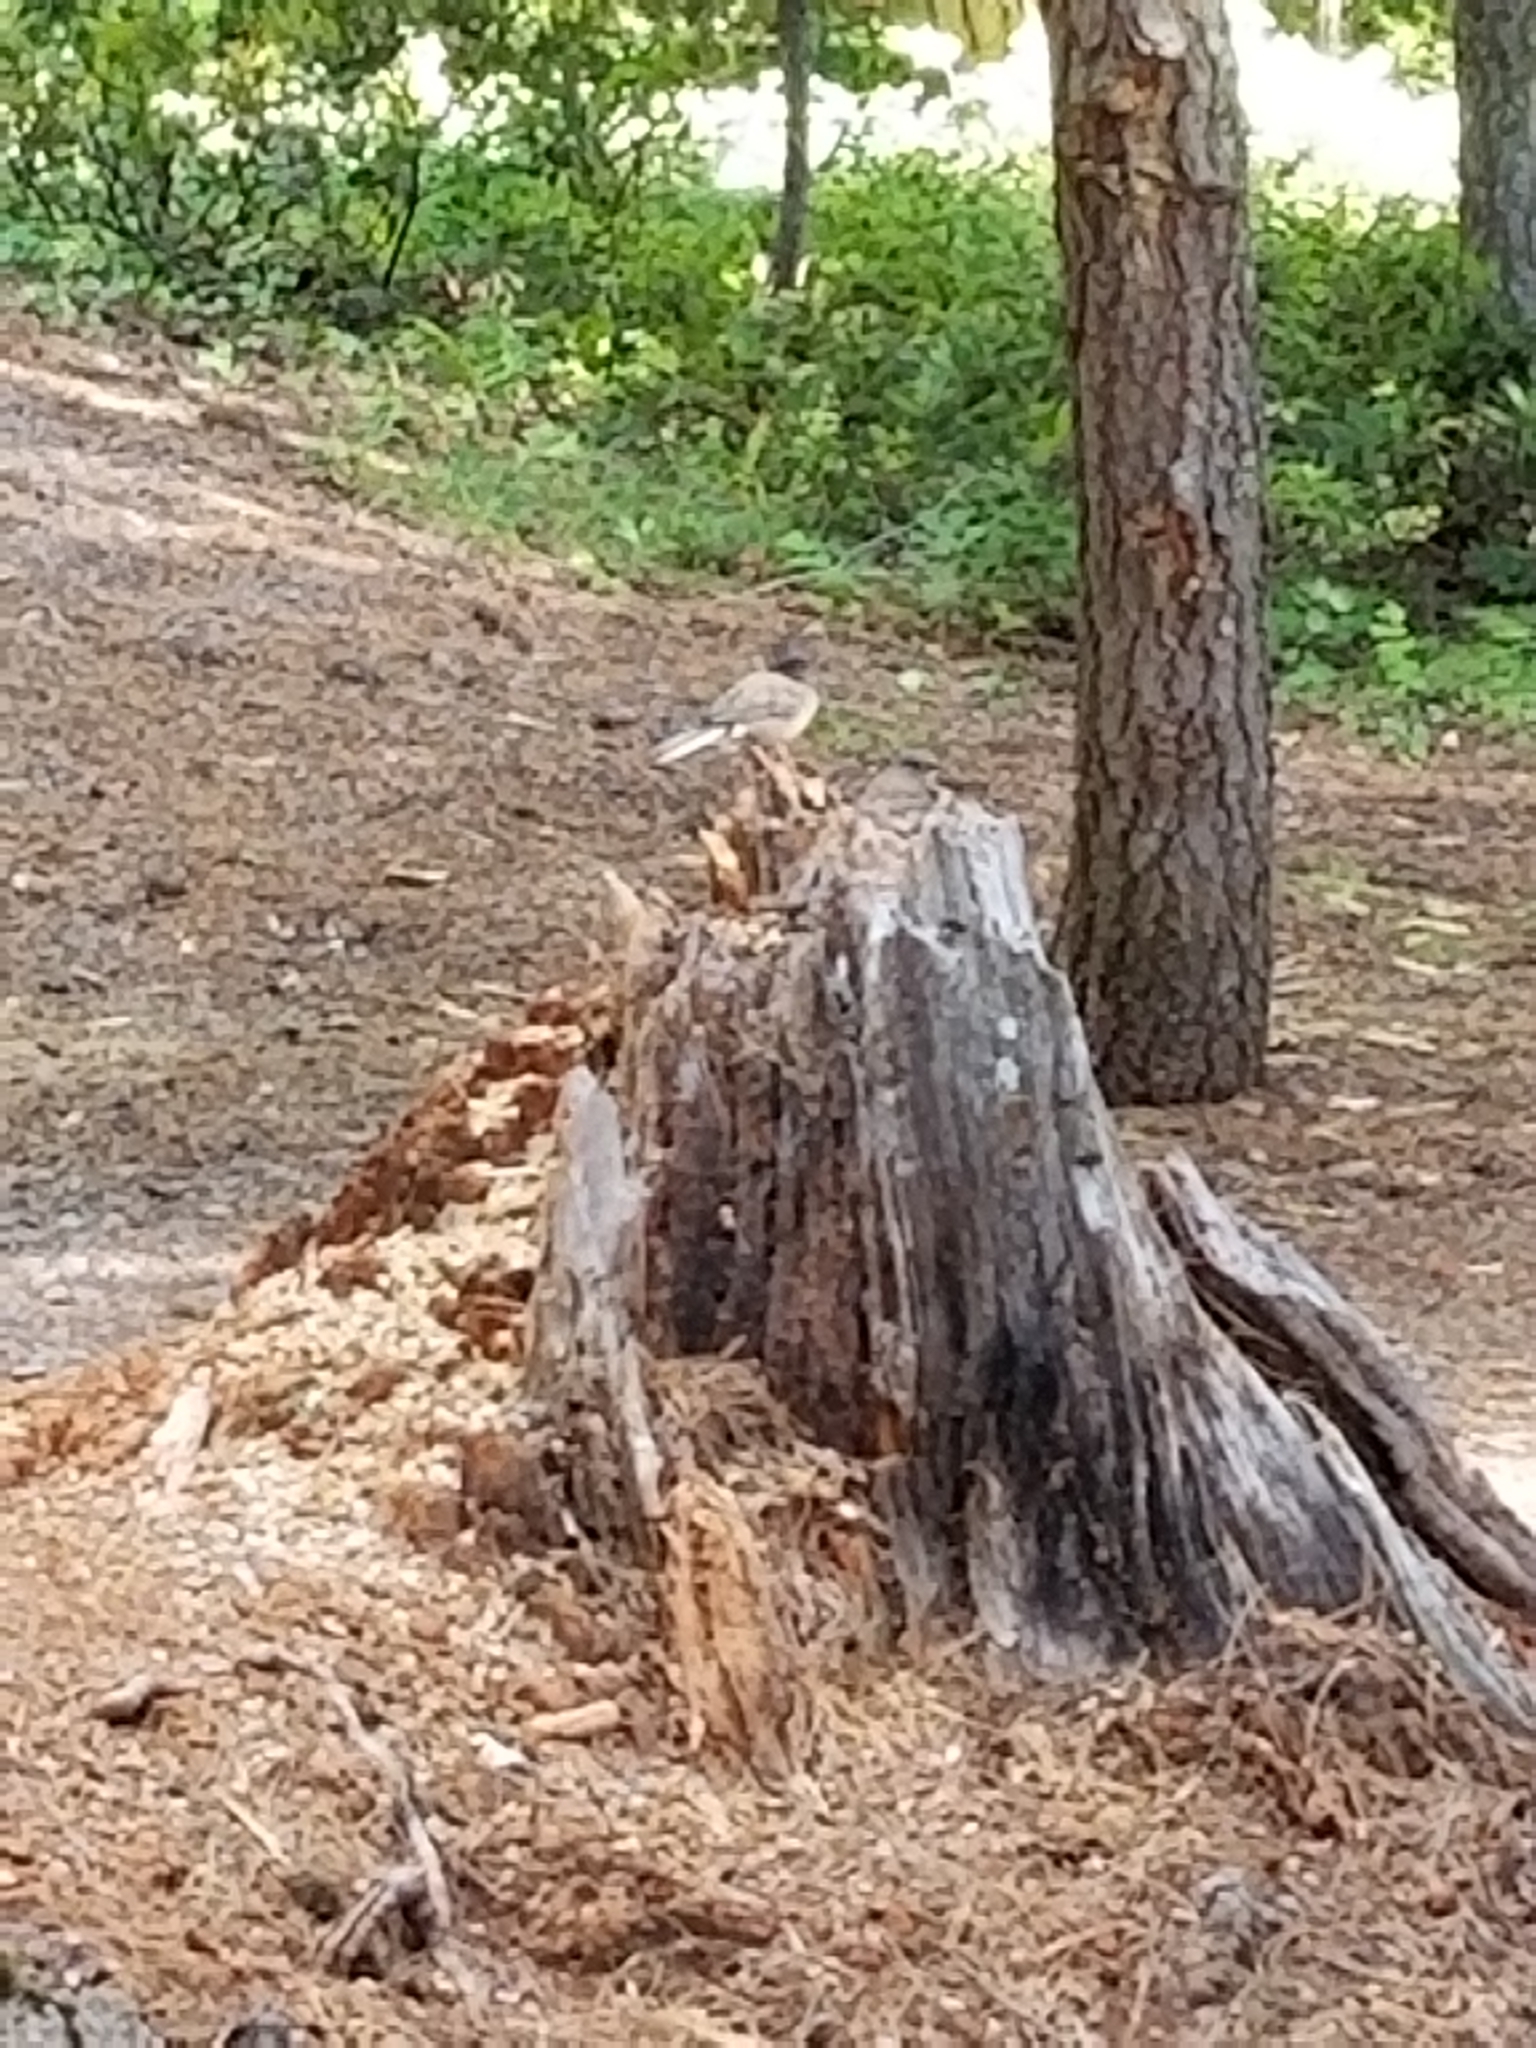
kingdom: Animalia
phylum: Chordata
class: Aves
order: Passeriformes
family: Passerellidae
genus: Junco
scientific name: Junco hyemalis
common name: Dark-eyed junco
